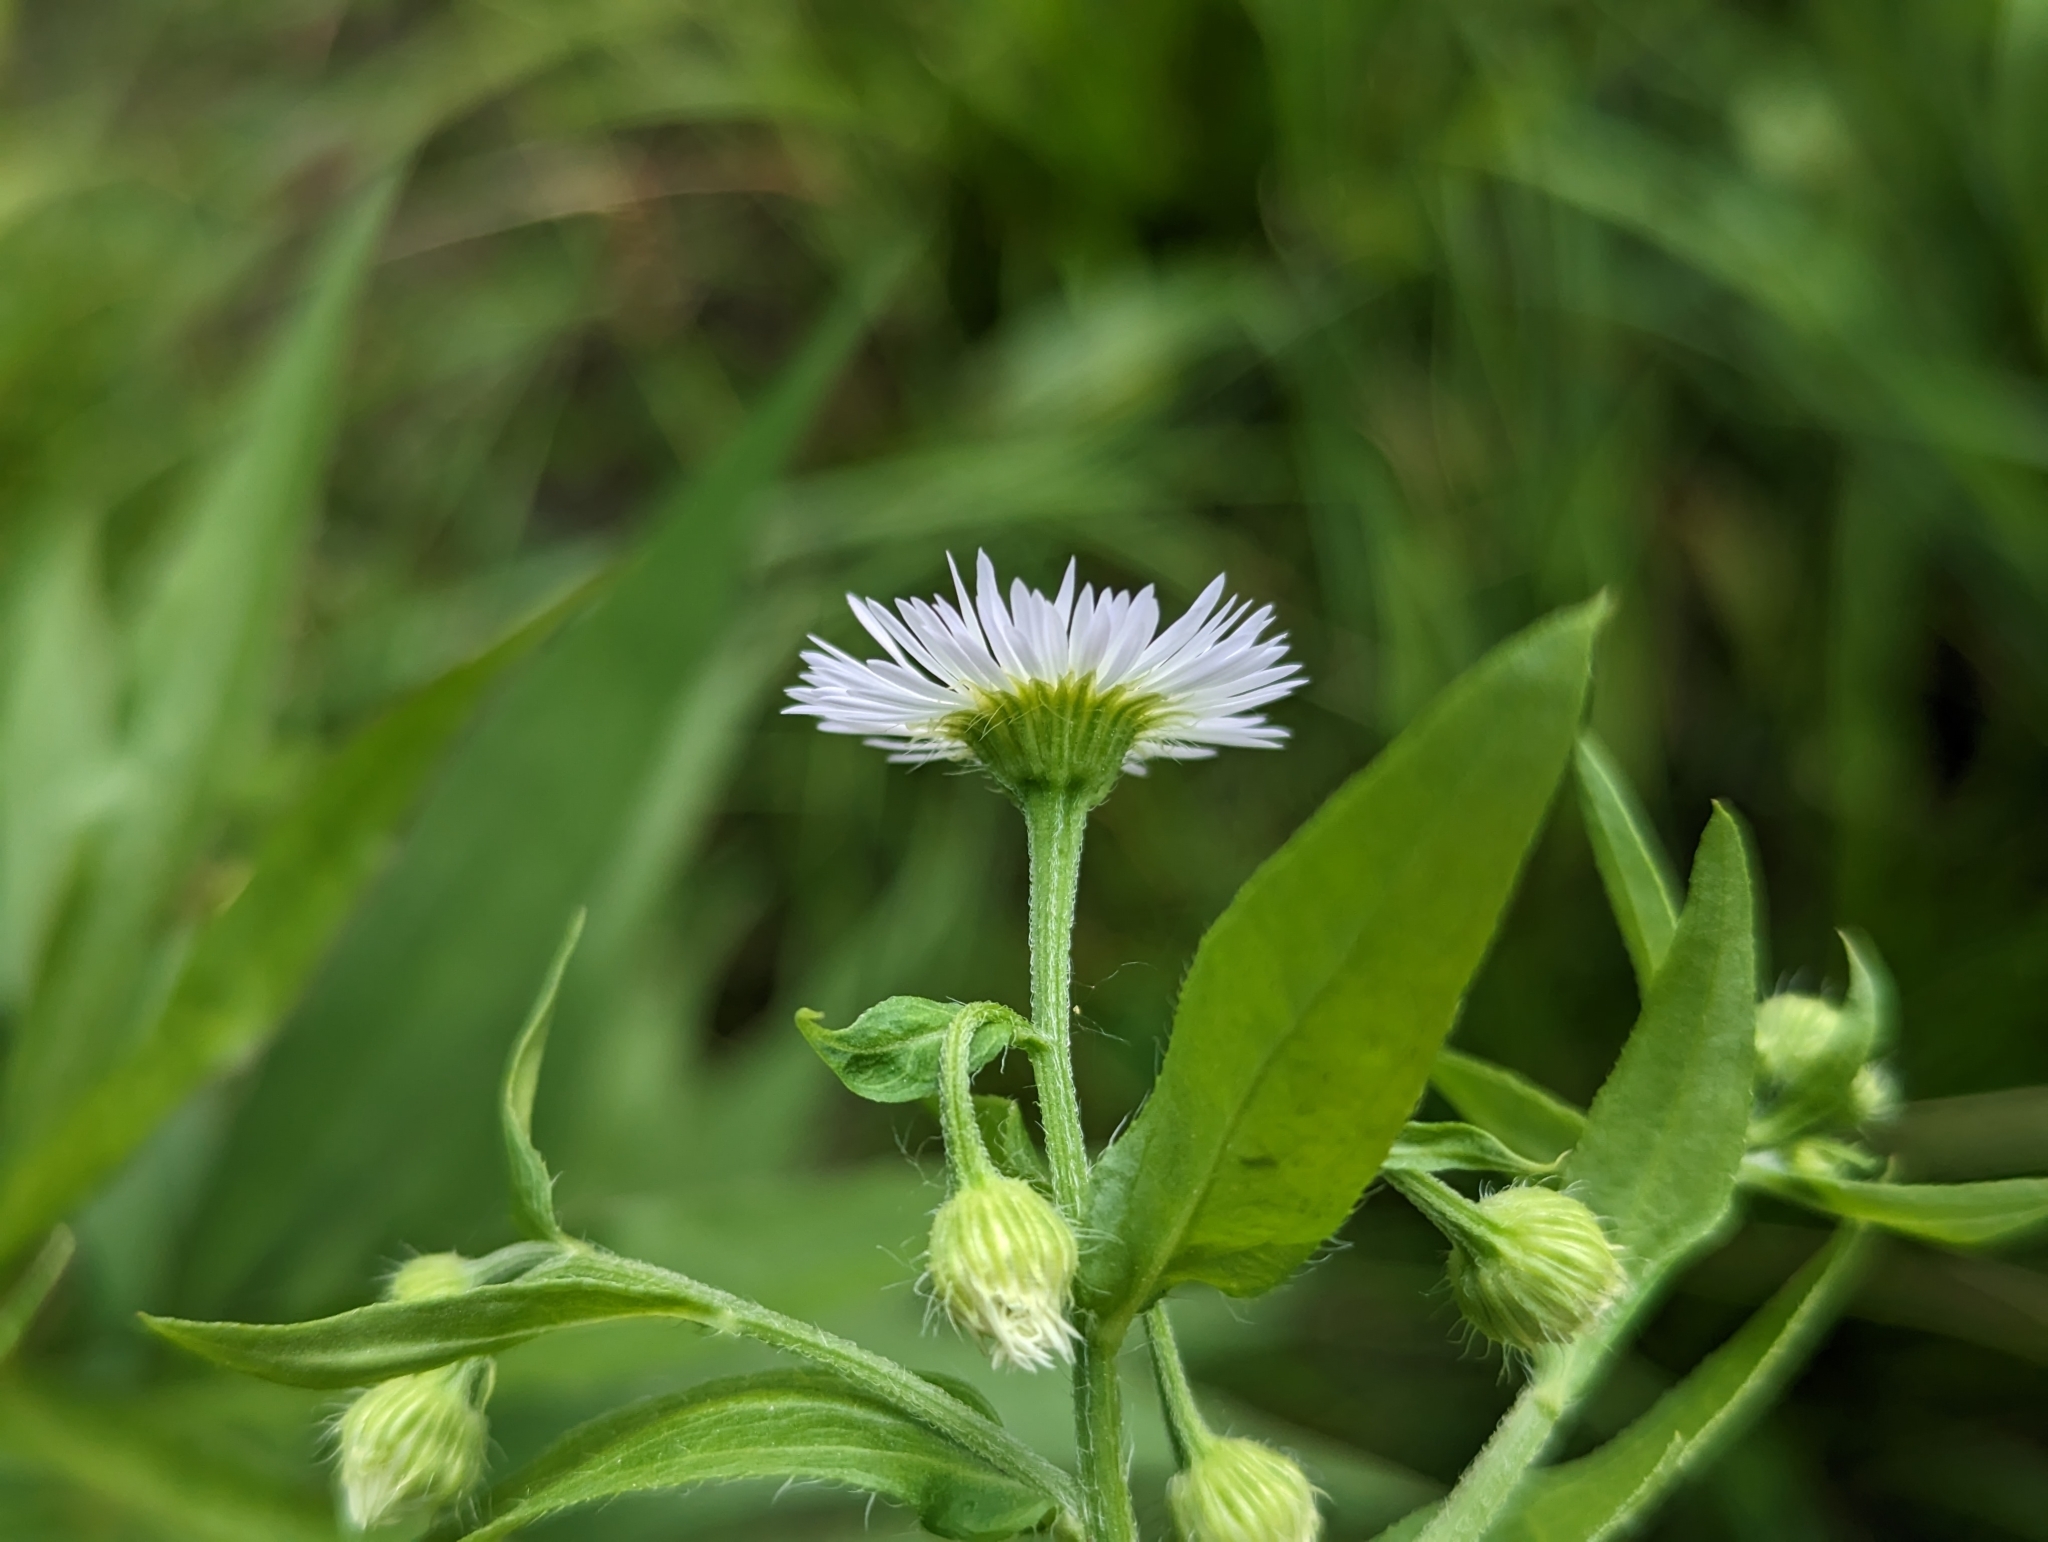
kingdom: Plantae
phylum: Tracheophyta
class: Magnoliopsida
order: Asterales
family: Asteraceae
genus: Erigeron
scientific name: Erigeron annuus
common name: Tall fleabane
